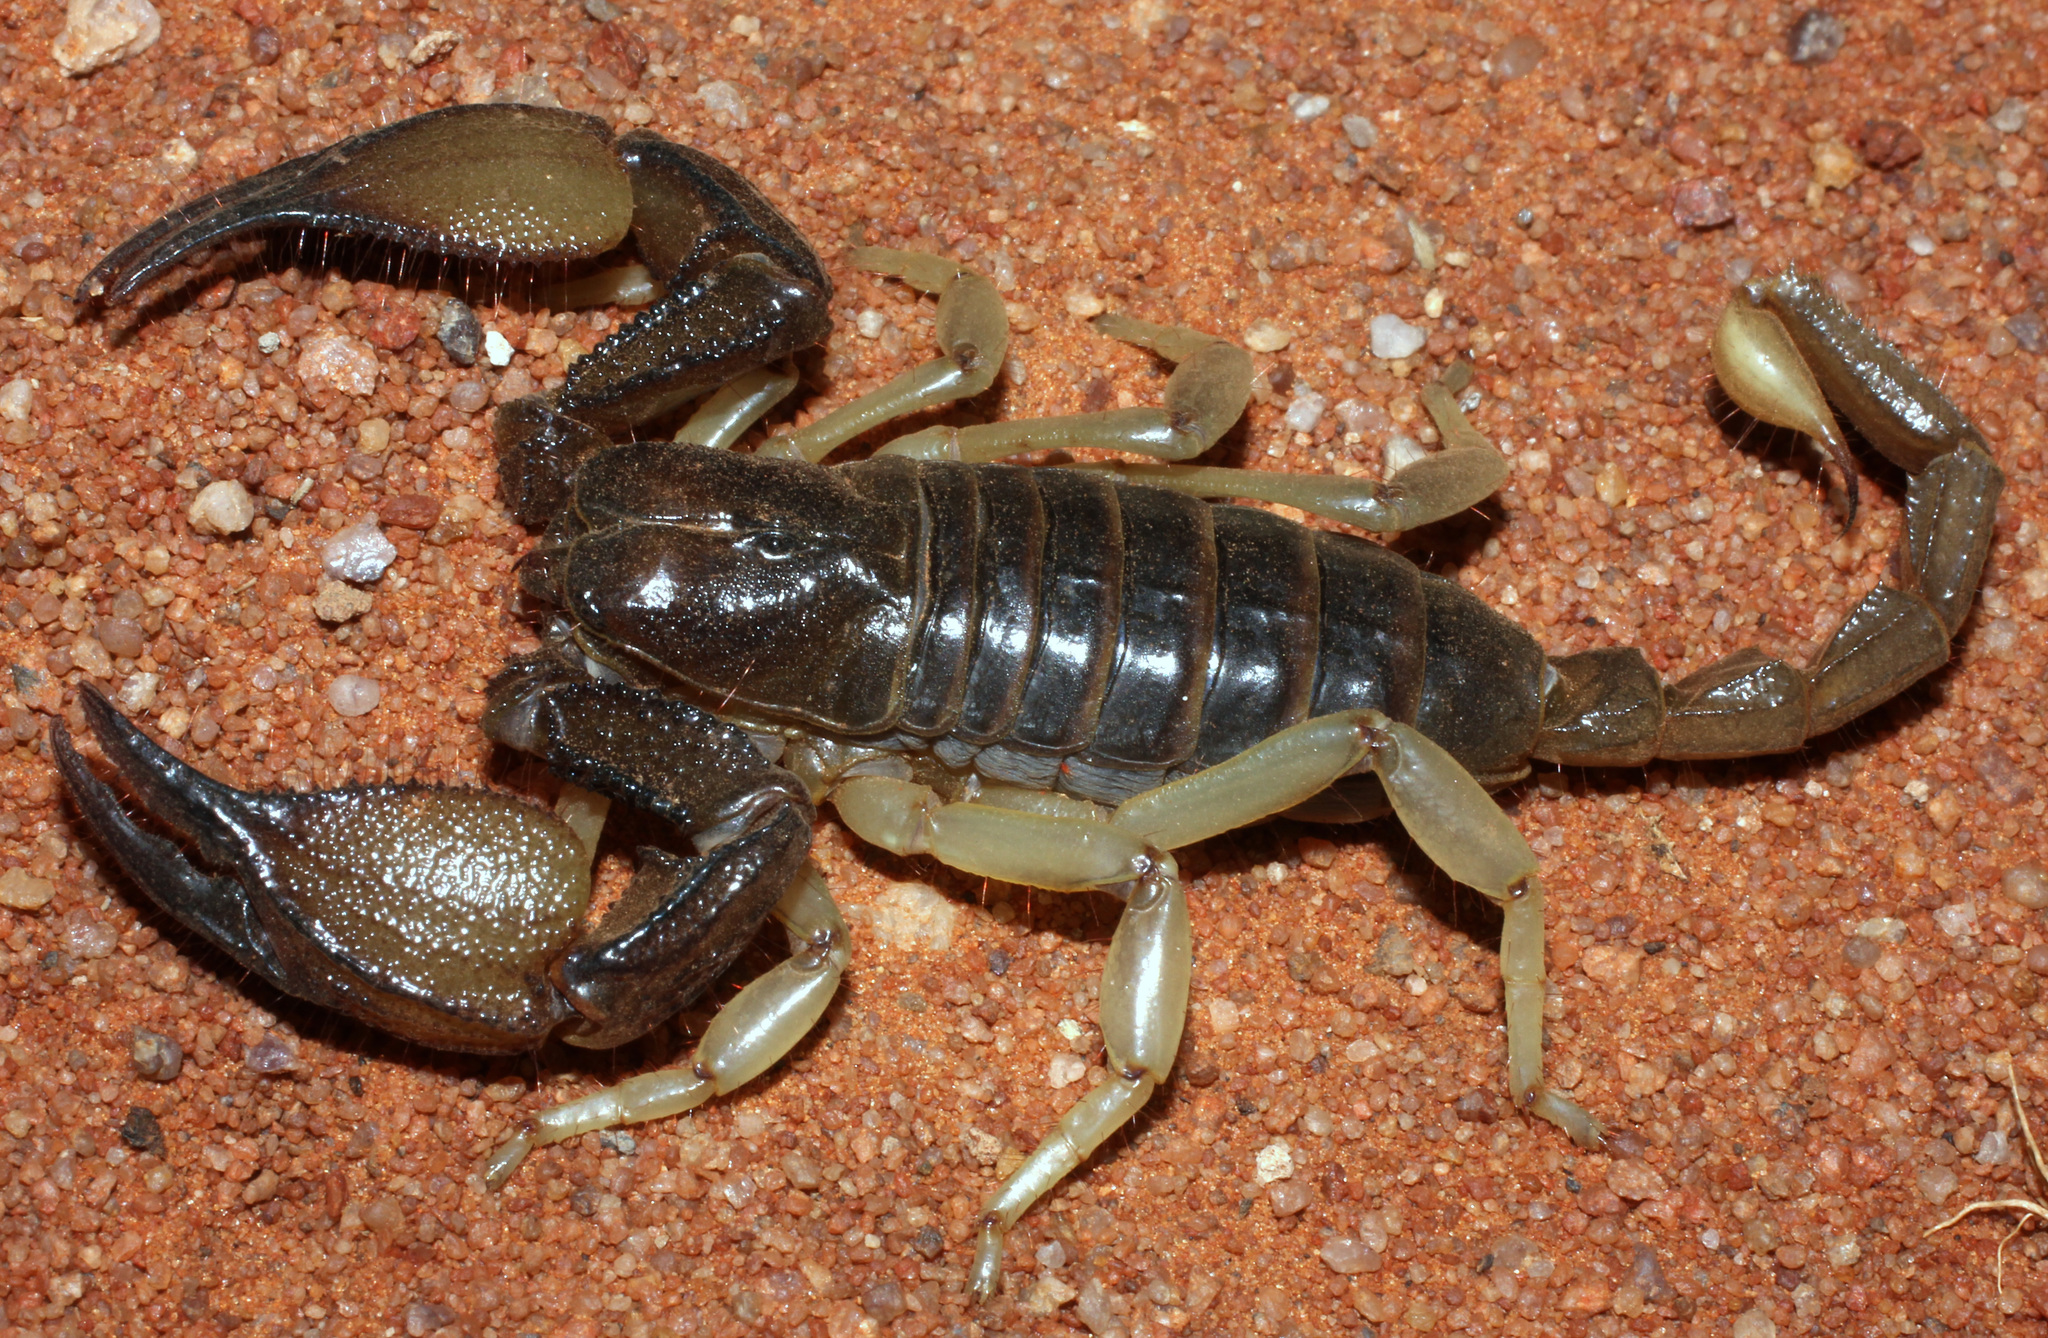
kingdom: Animalia
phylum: Arthropoda
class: Arachnida
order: Scorpiones
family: Scorpionidae
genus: Opistophthalmus
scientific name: Opistophthalmus carinatus
